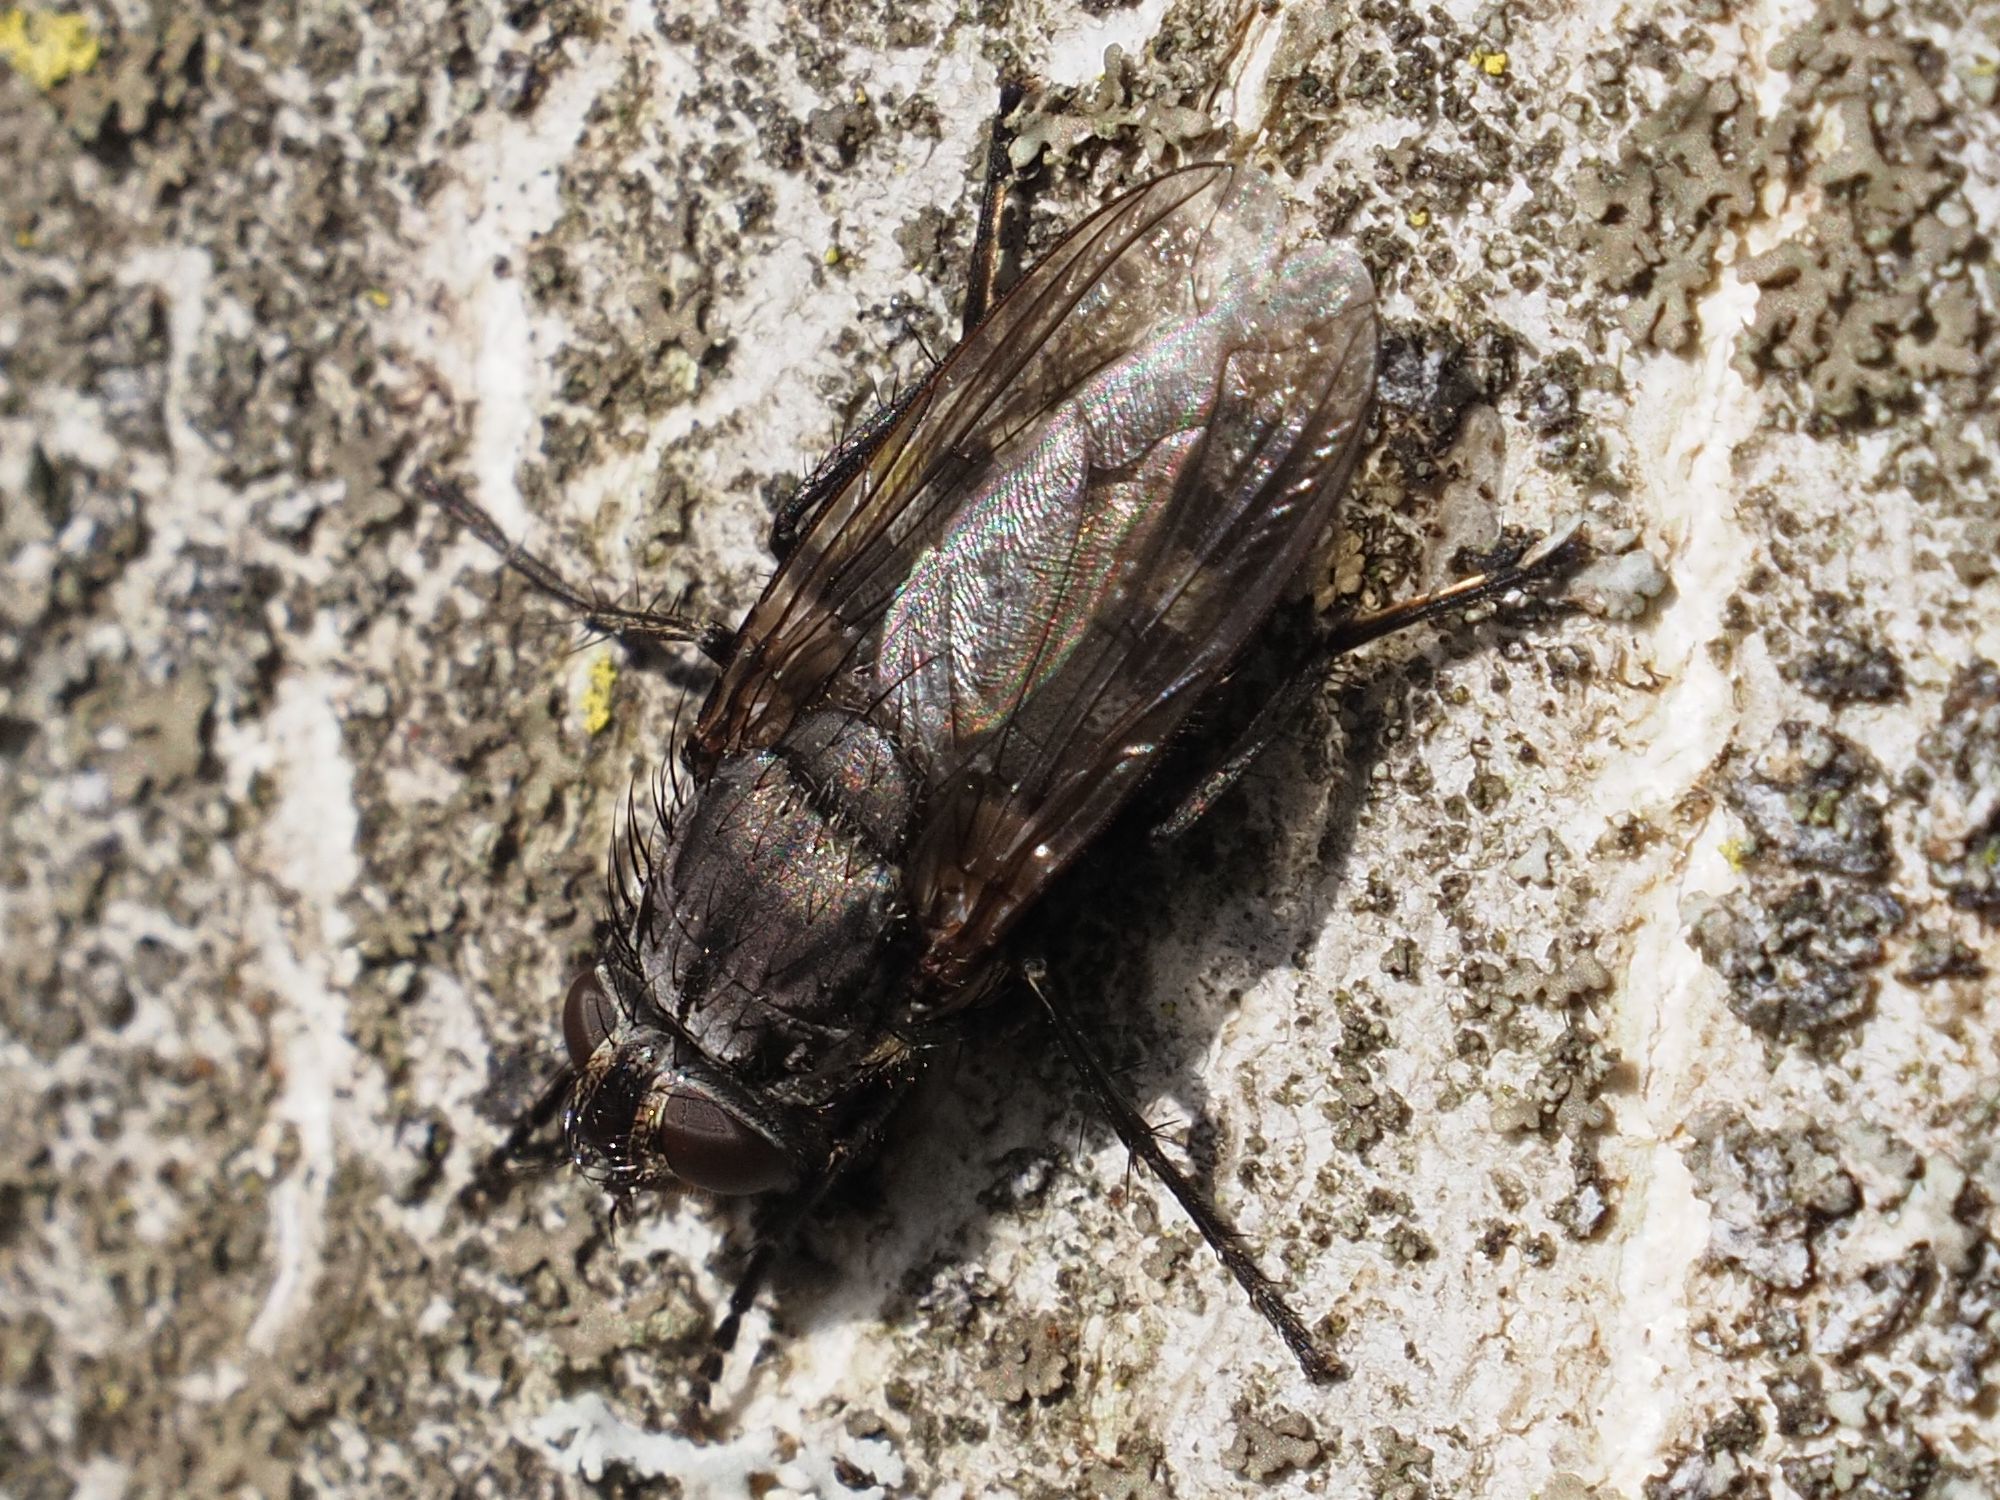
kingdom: Animalia
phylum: Arthropoda
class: Insecta
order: Diptera
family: Polleniidae
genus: Pollenia
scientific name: Pollenia vagabunda
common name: Vagabund cluster fly
